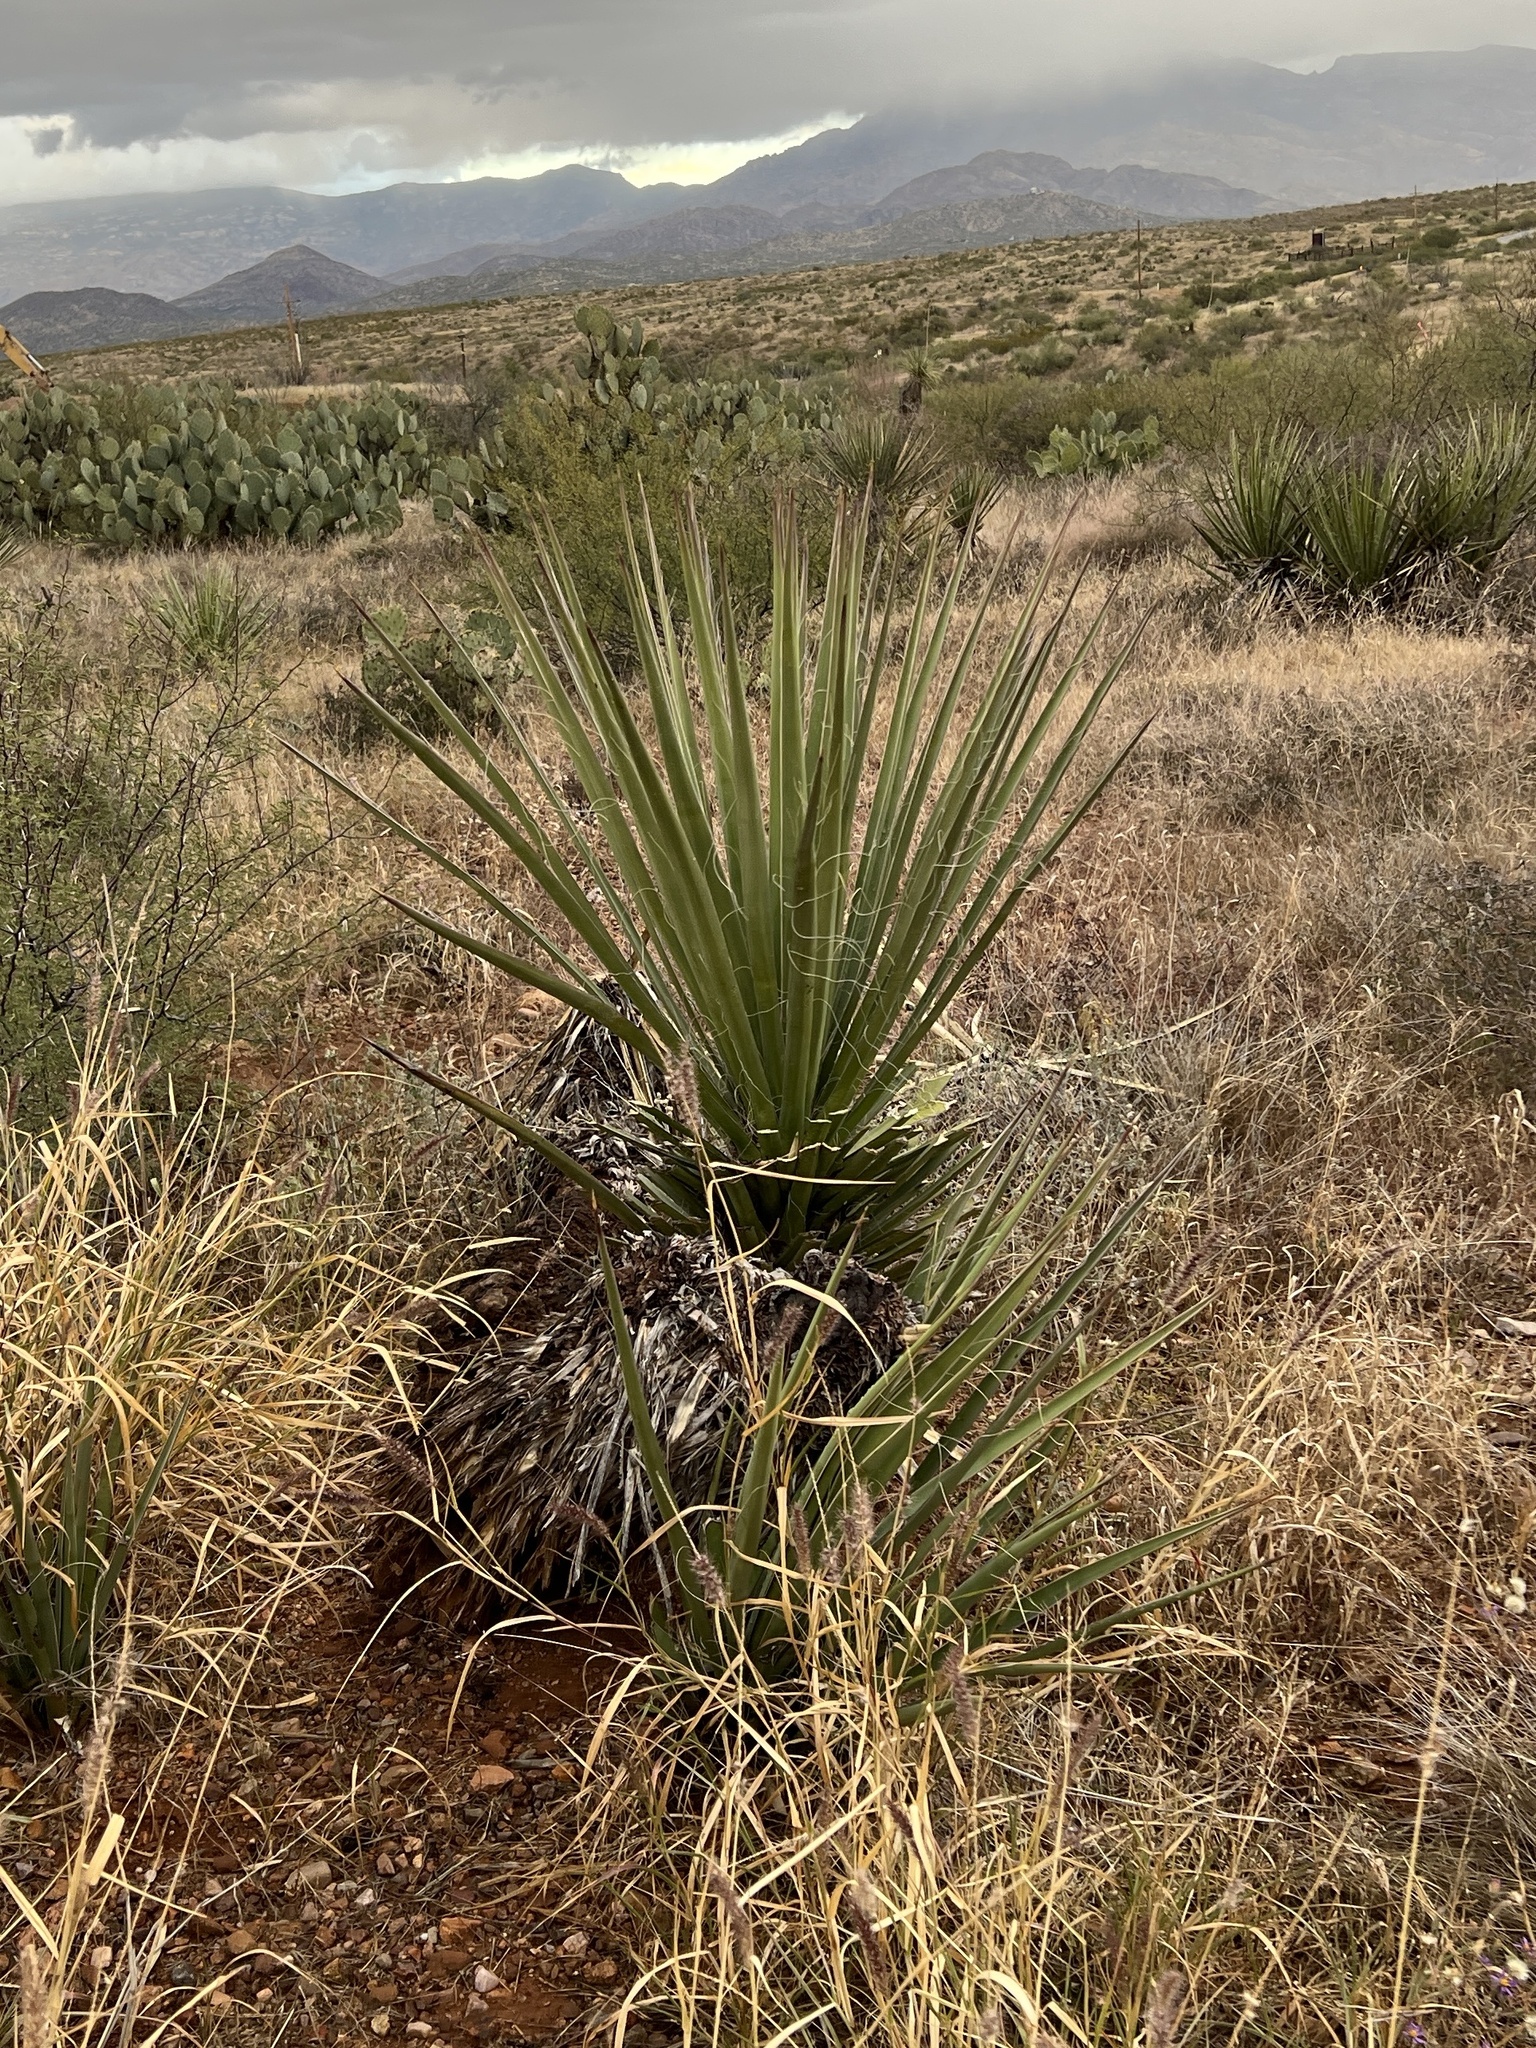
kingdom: Plantae
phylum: Tracheophyta
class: Liliopsida
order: Asparagales
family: Asparagaceae
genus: Yucca
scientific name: Yucca baccata
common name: Banana yucca
